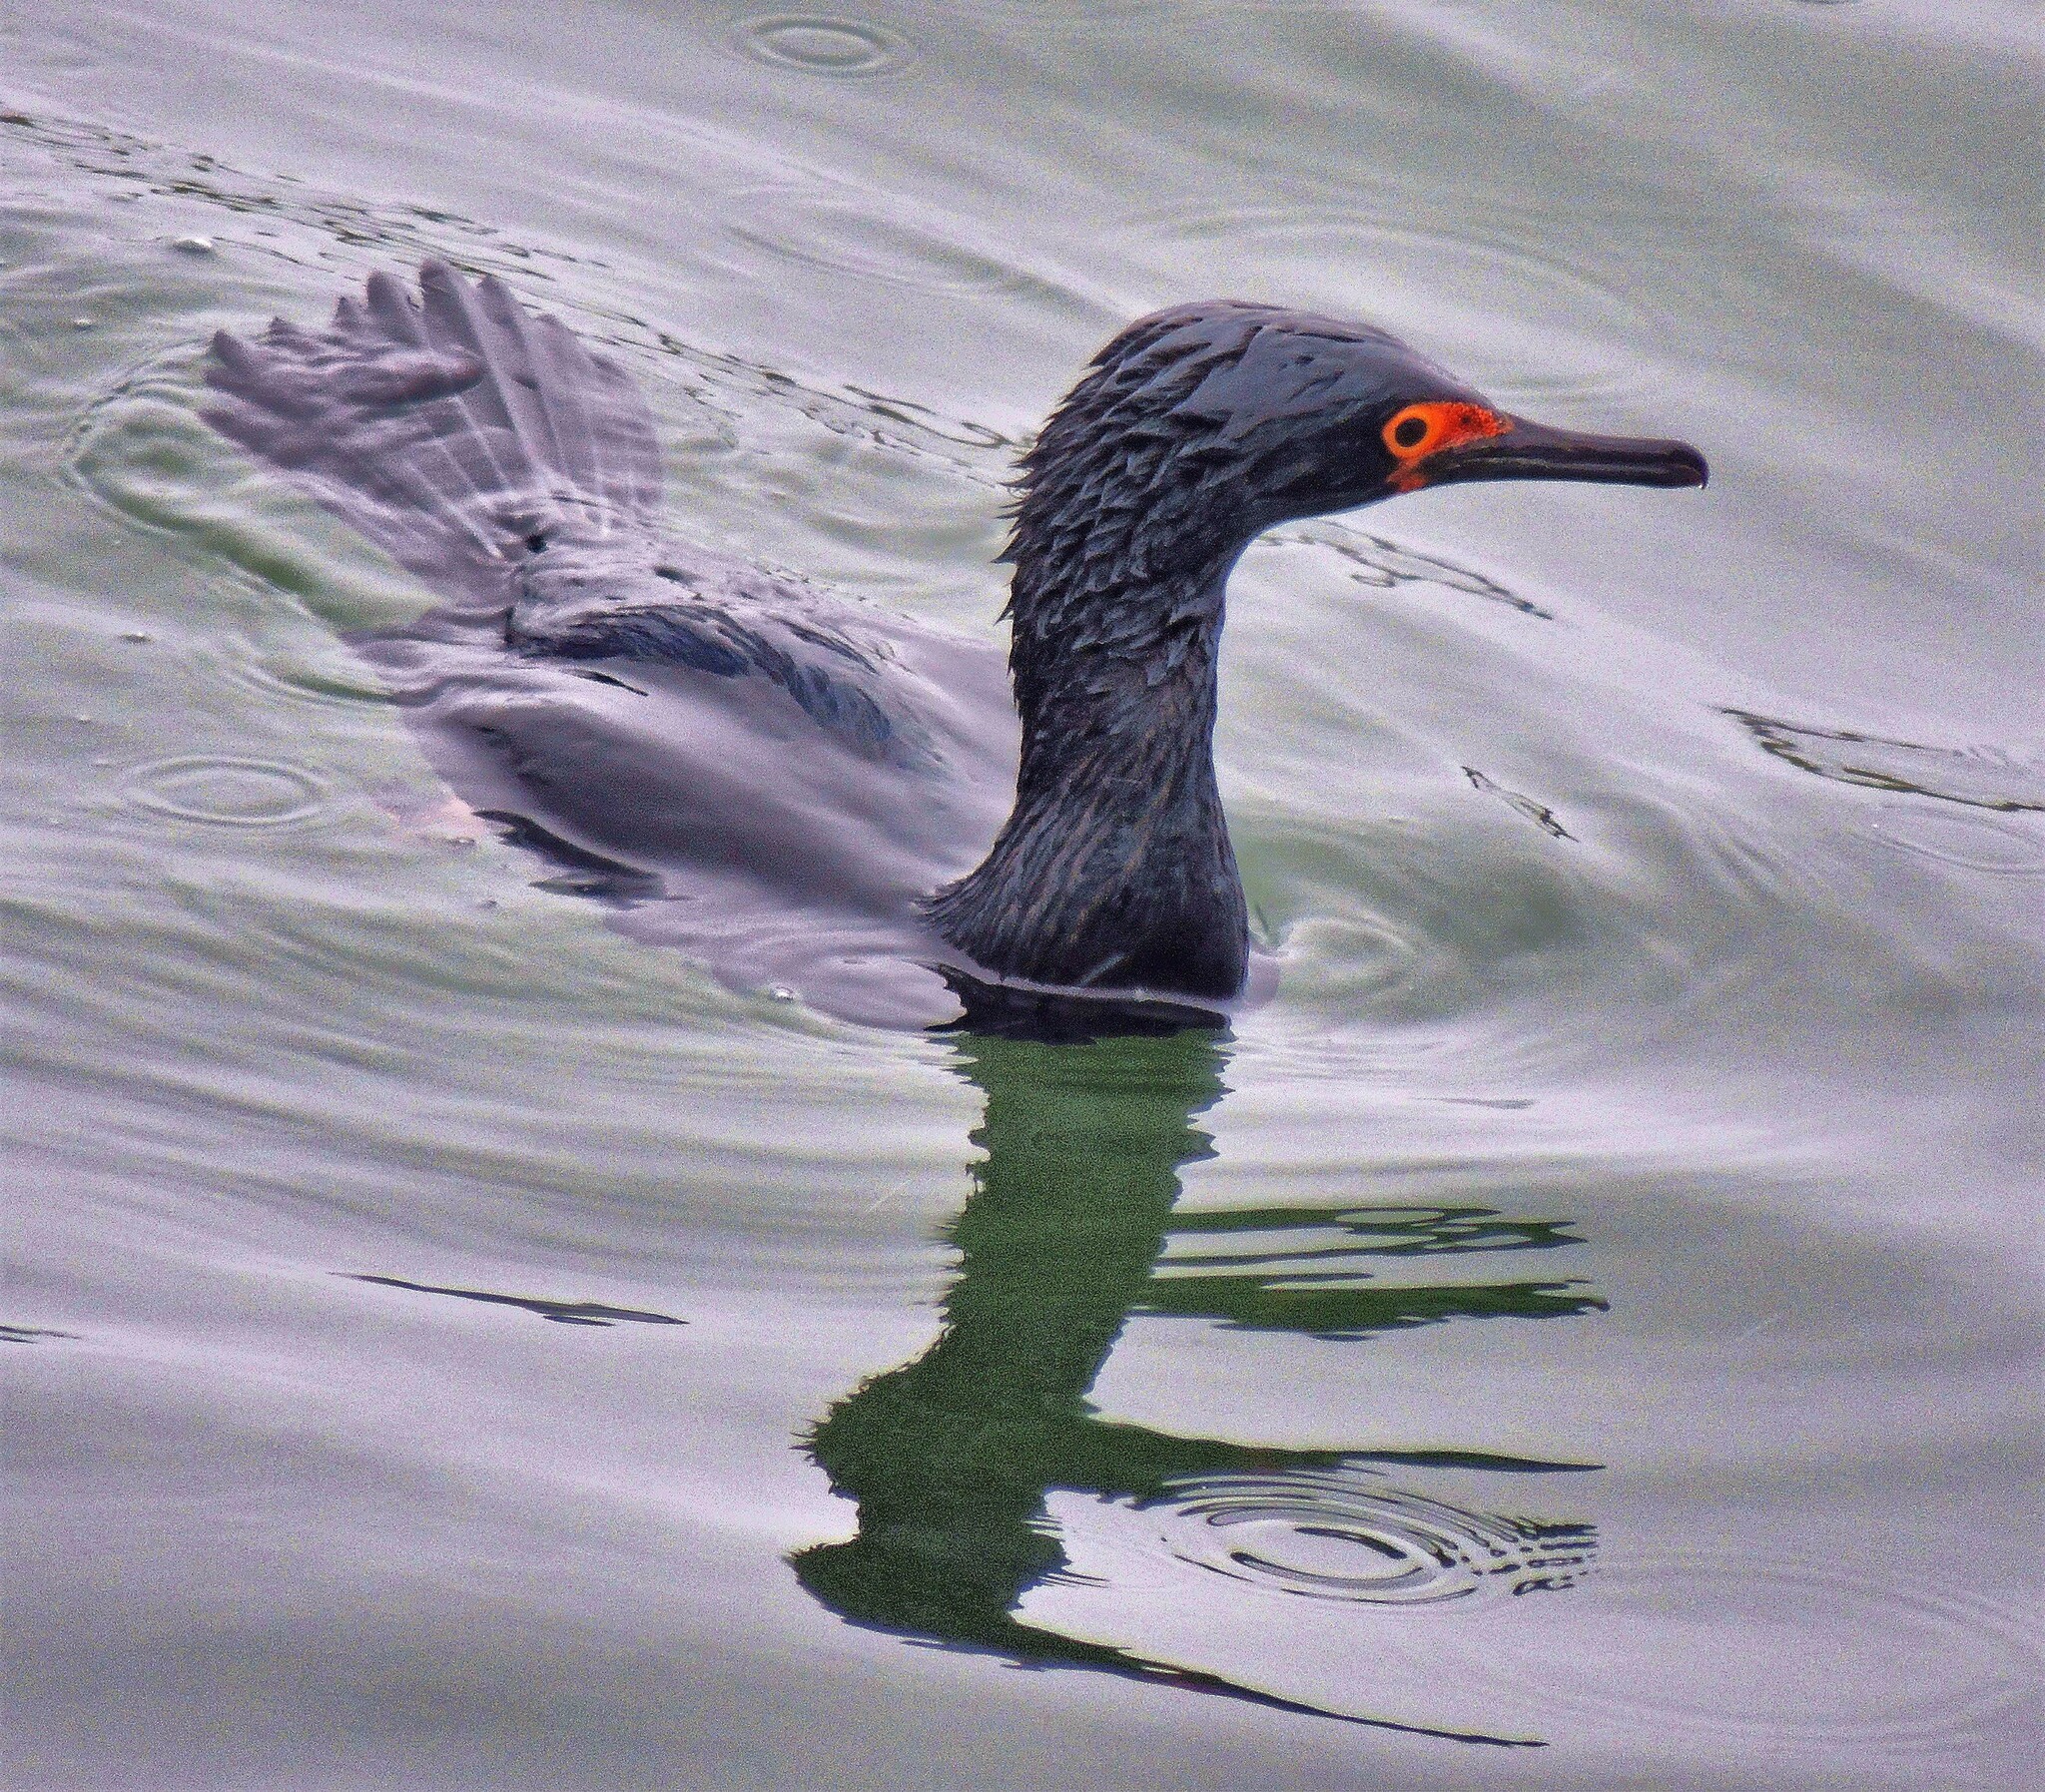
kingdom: Animalia
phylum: Chordata
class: Aves
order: Suliformes
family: Phalacrocoracidae
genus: Phalacrocorax
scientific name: Phalacrocorax magellanicus
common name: Rock shag
